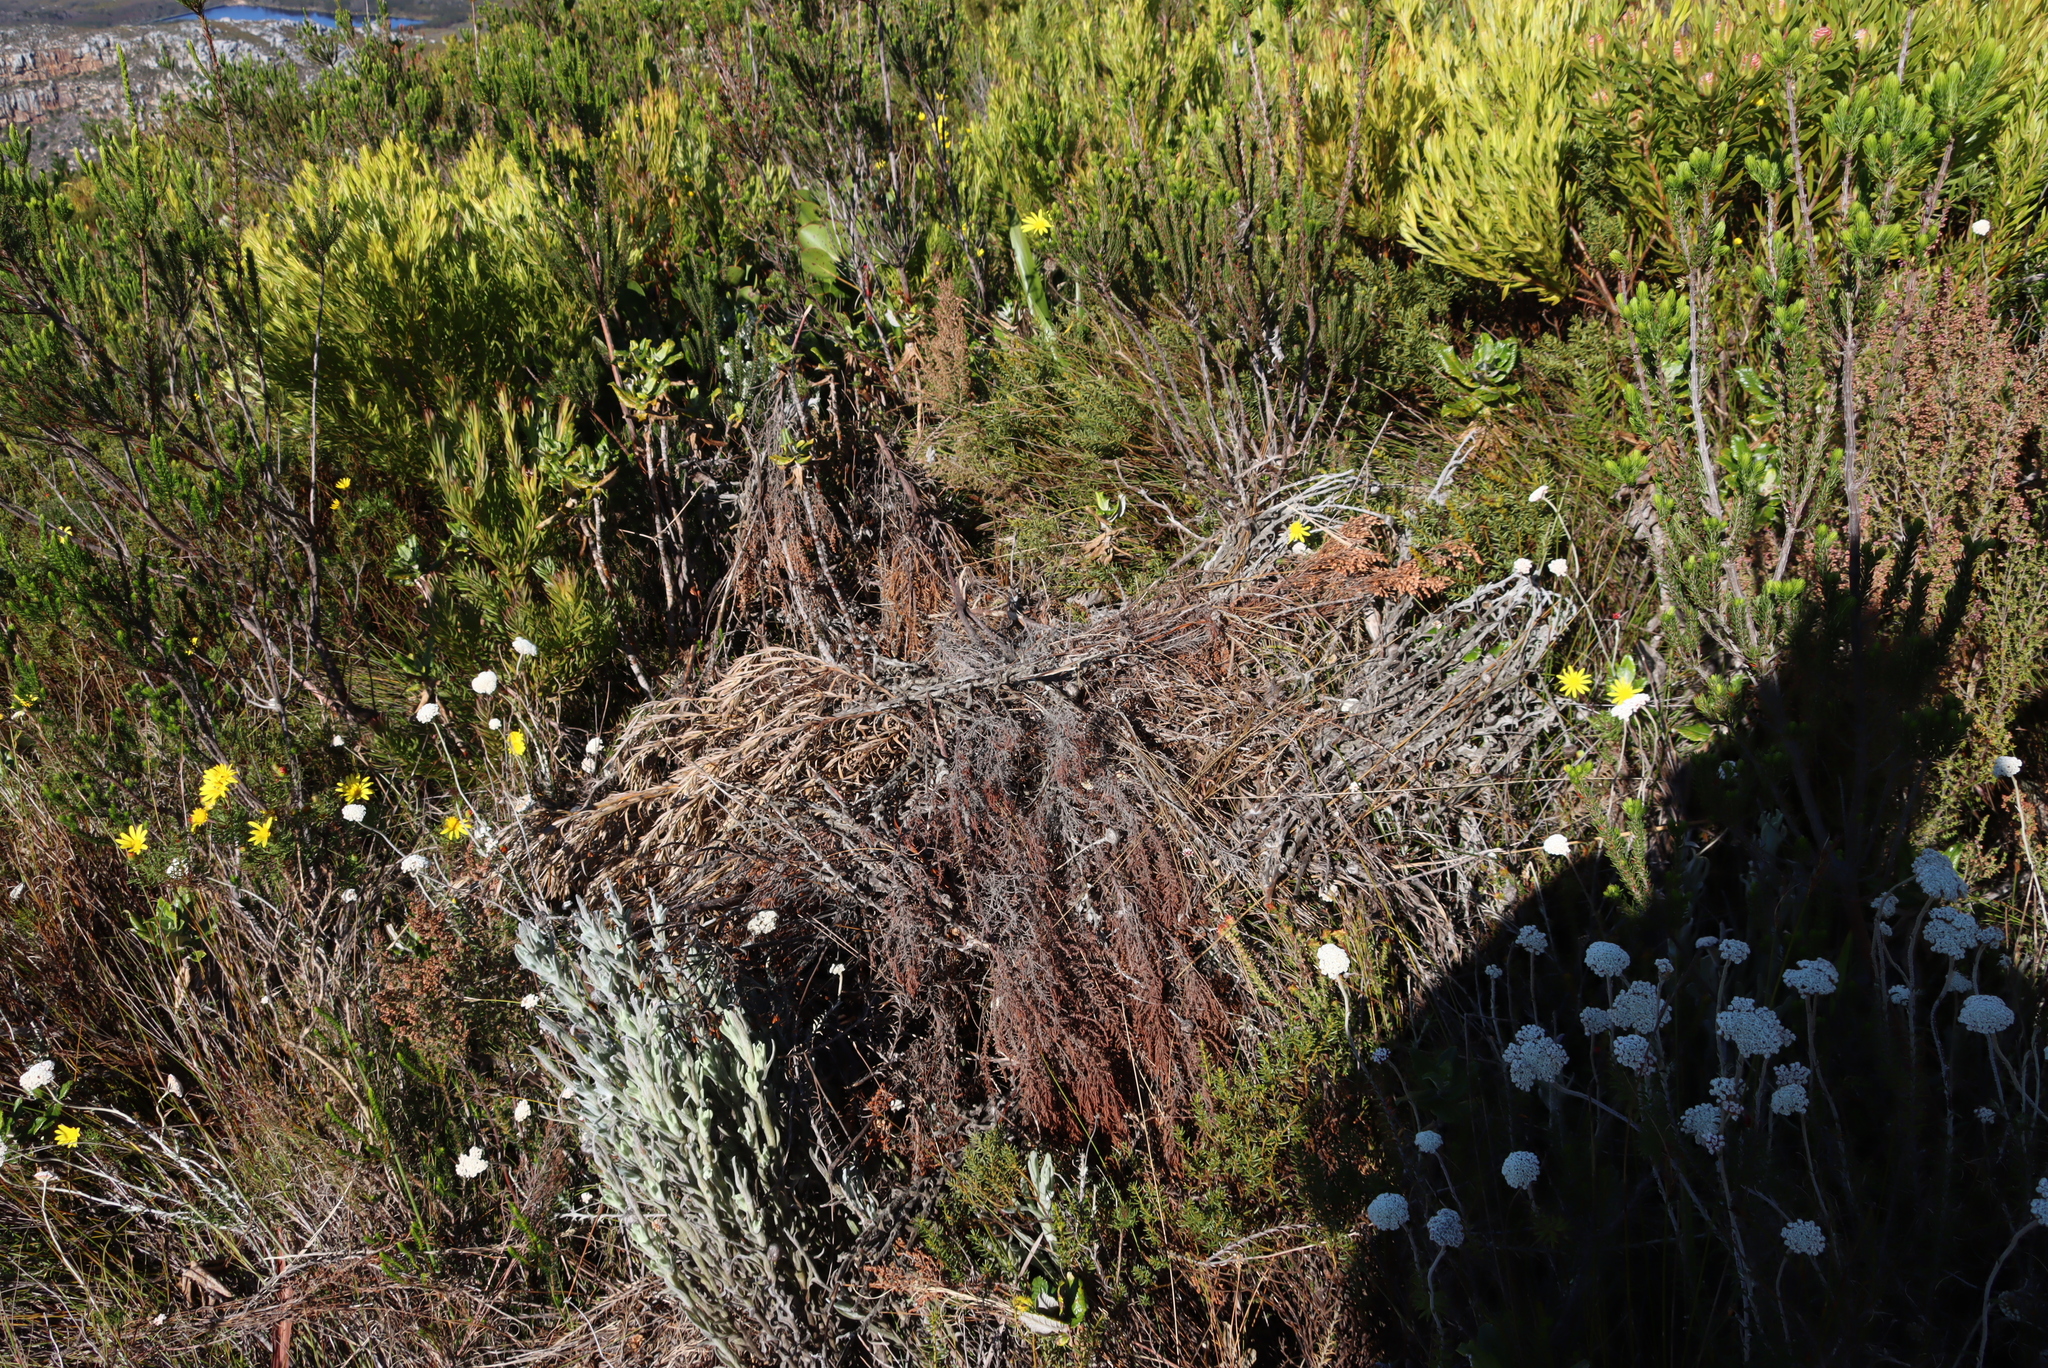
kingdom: Plantae
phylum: Tracheophyta
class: Magnoliopsida
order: Proteales
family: Proteaceae
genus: Leucadendron
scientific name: Leucadendron xanthoconus
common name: Sickle-leaf conebush
